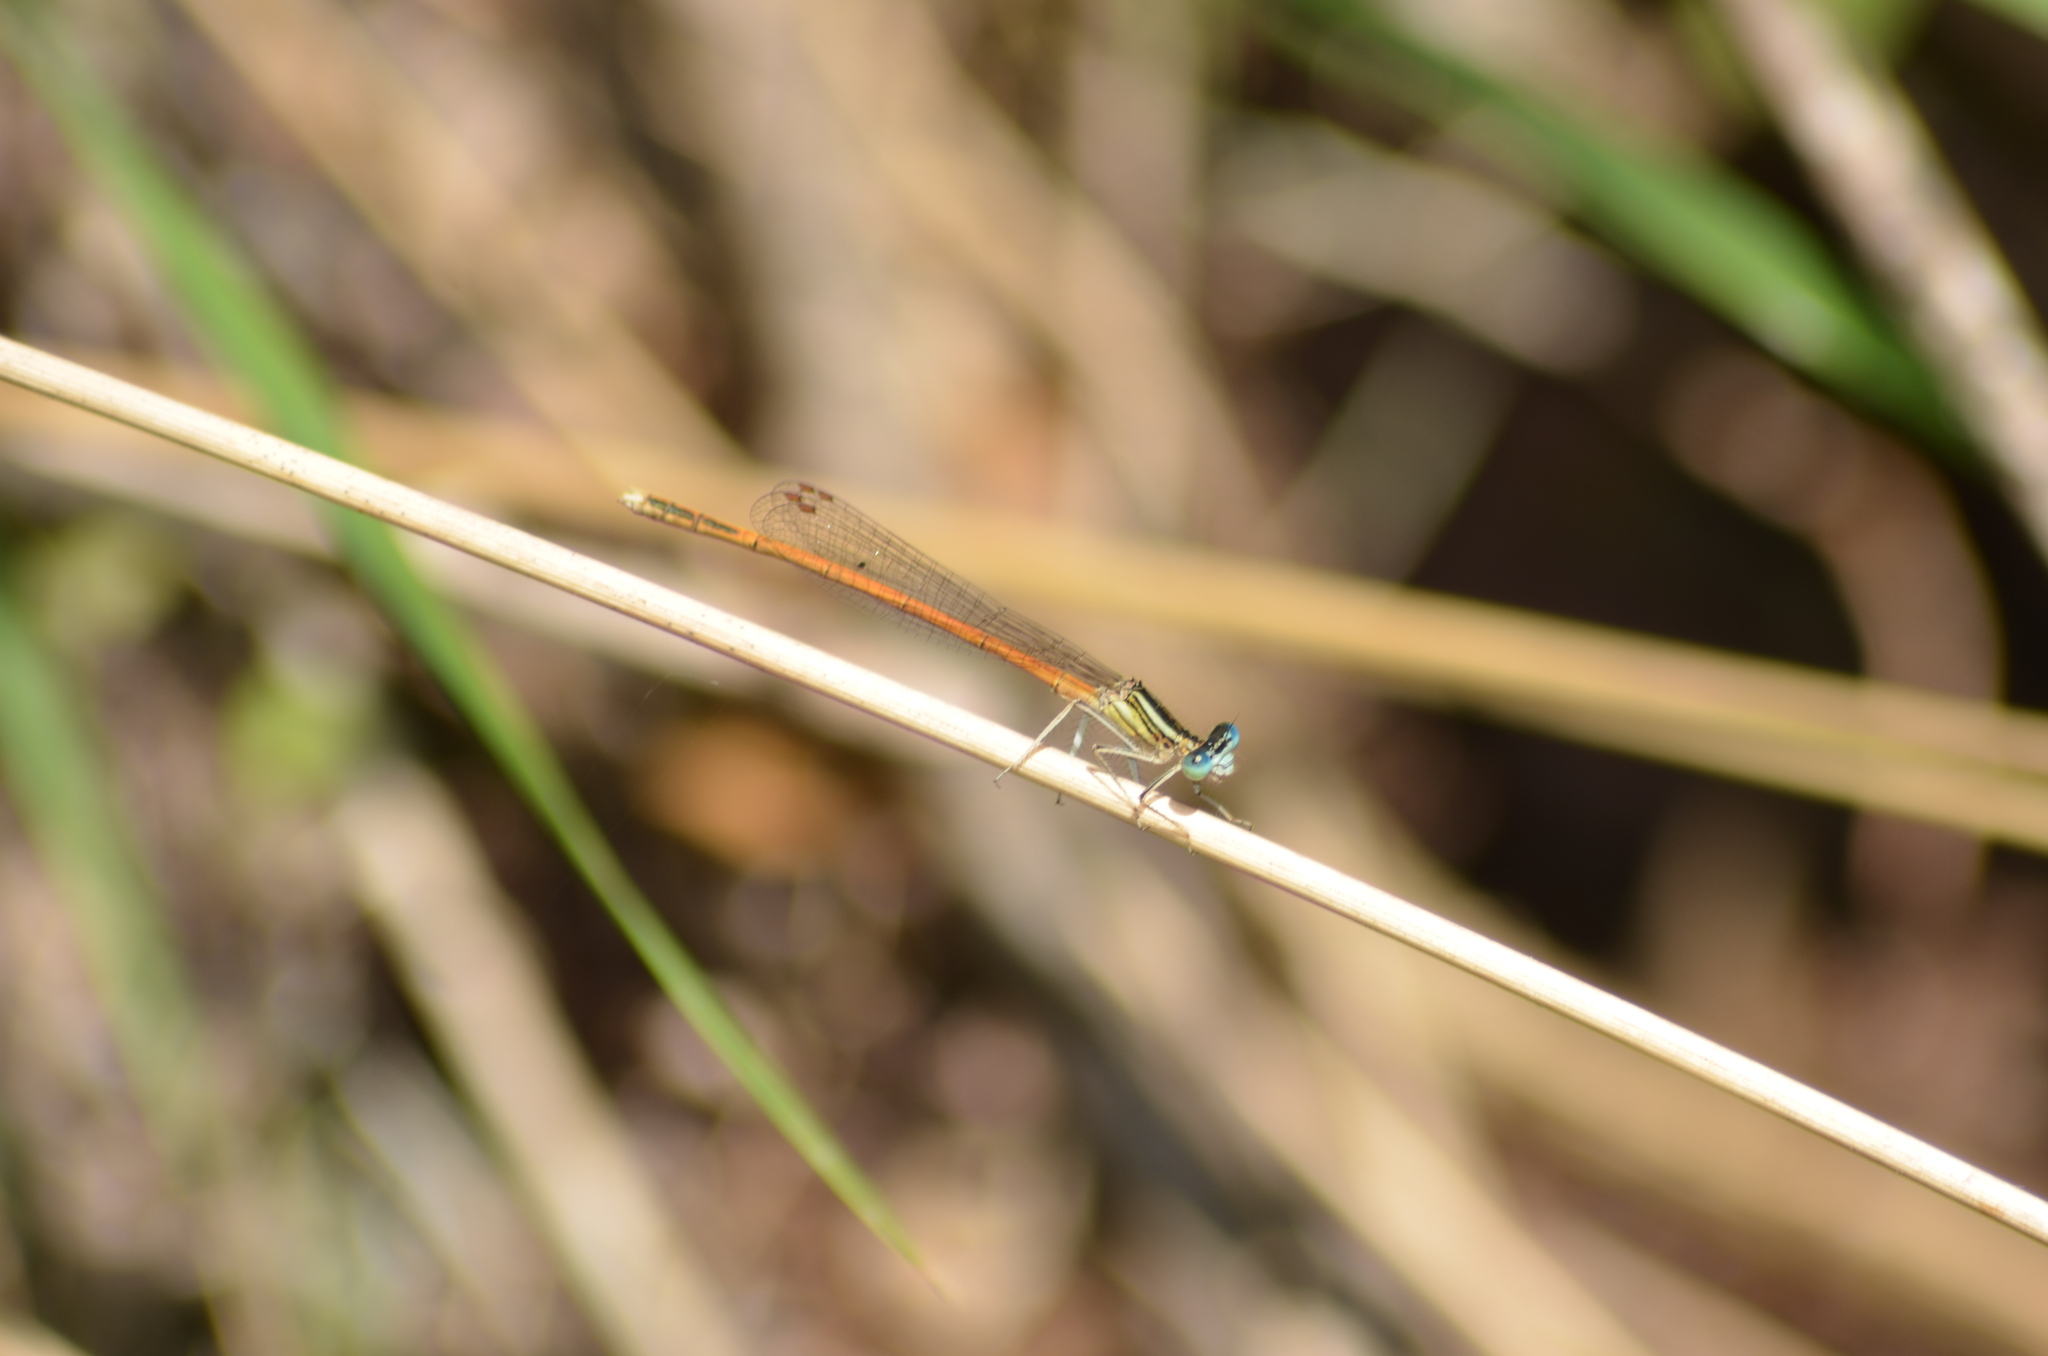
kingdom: Animalia
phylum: Arthropoda
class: Insecta
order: Odonata
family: Platycnemididae
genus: Platycnemis
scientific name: Platycnemis acutipennis
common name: Orange featherleg
